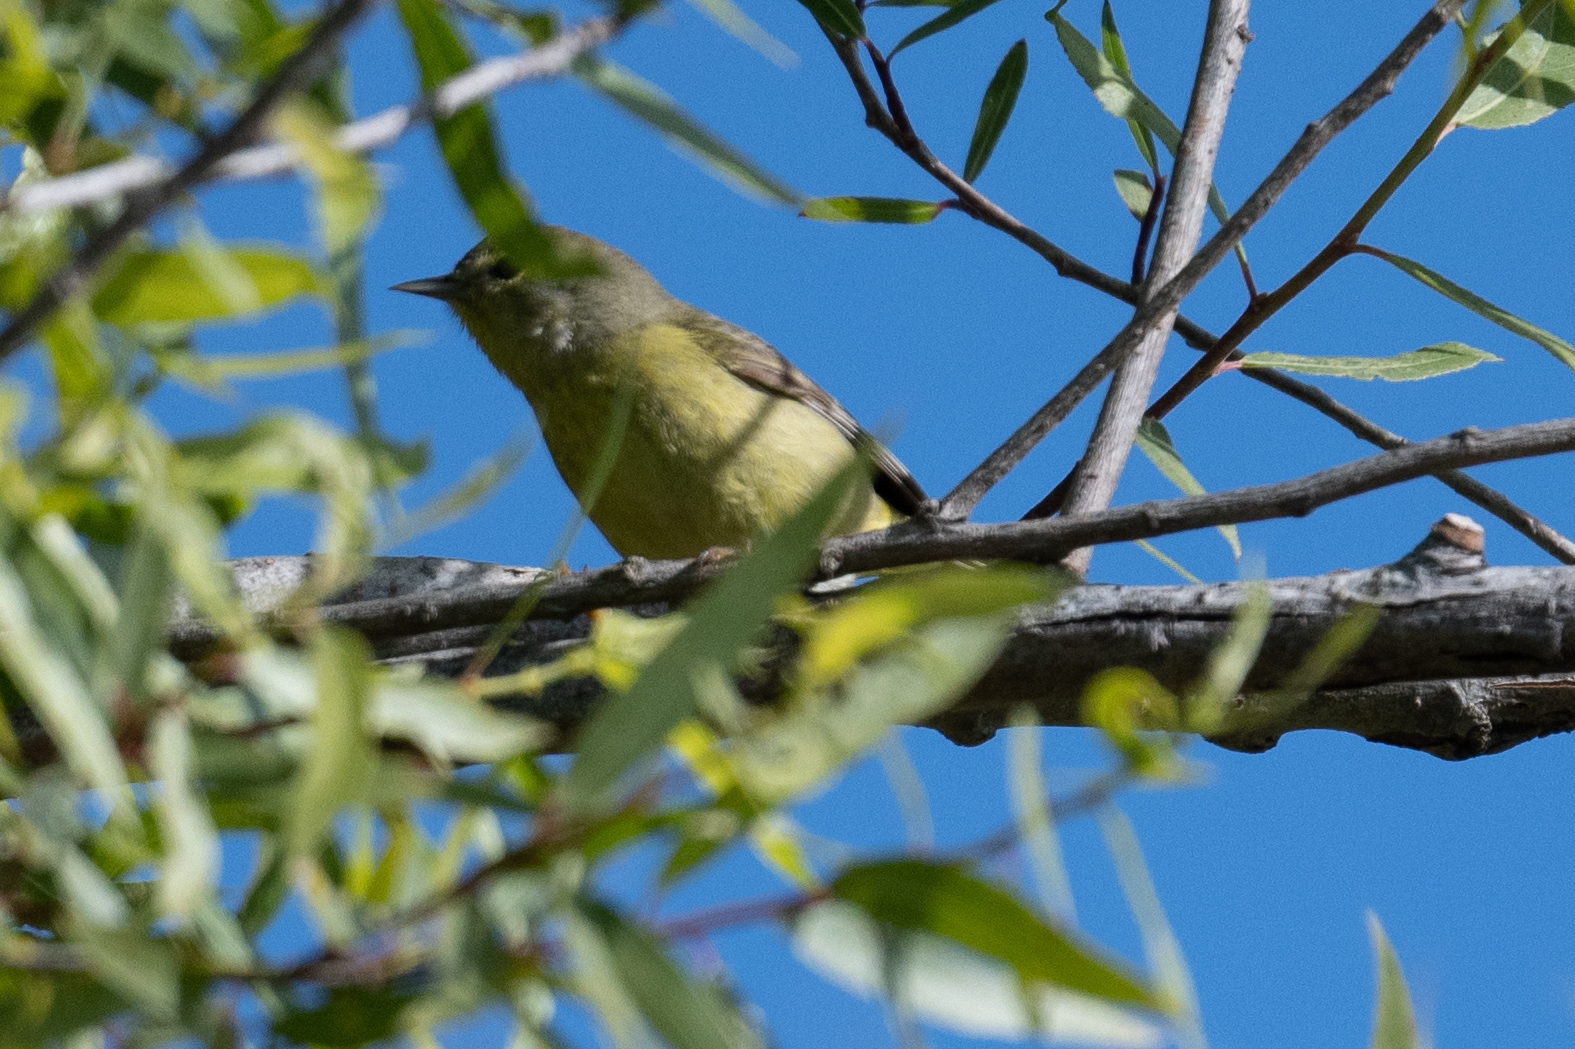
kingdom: Animalia
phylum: Chordata
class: Aves
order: Passeriformes
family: Parulidae
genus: Leiothlypis
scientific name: Leiothlypis celata
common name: Orange-crowned warbler
